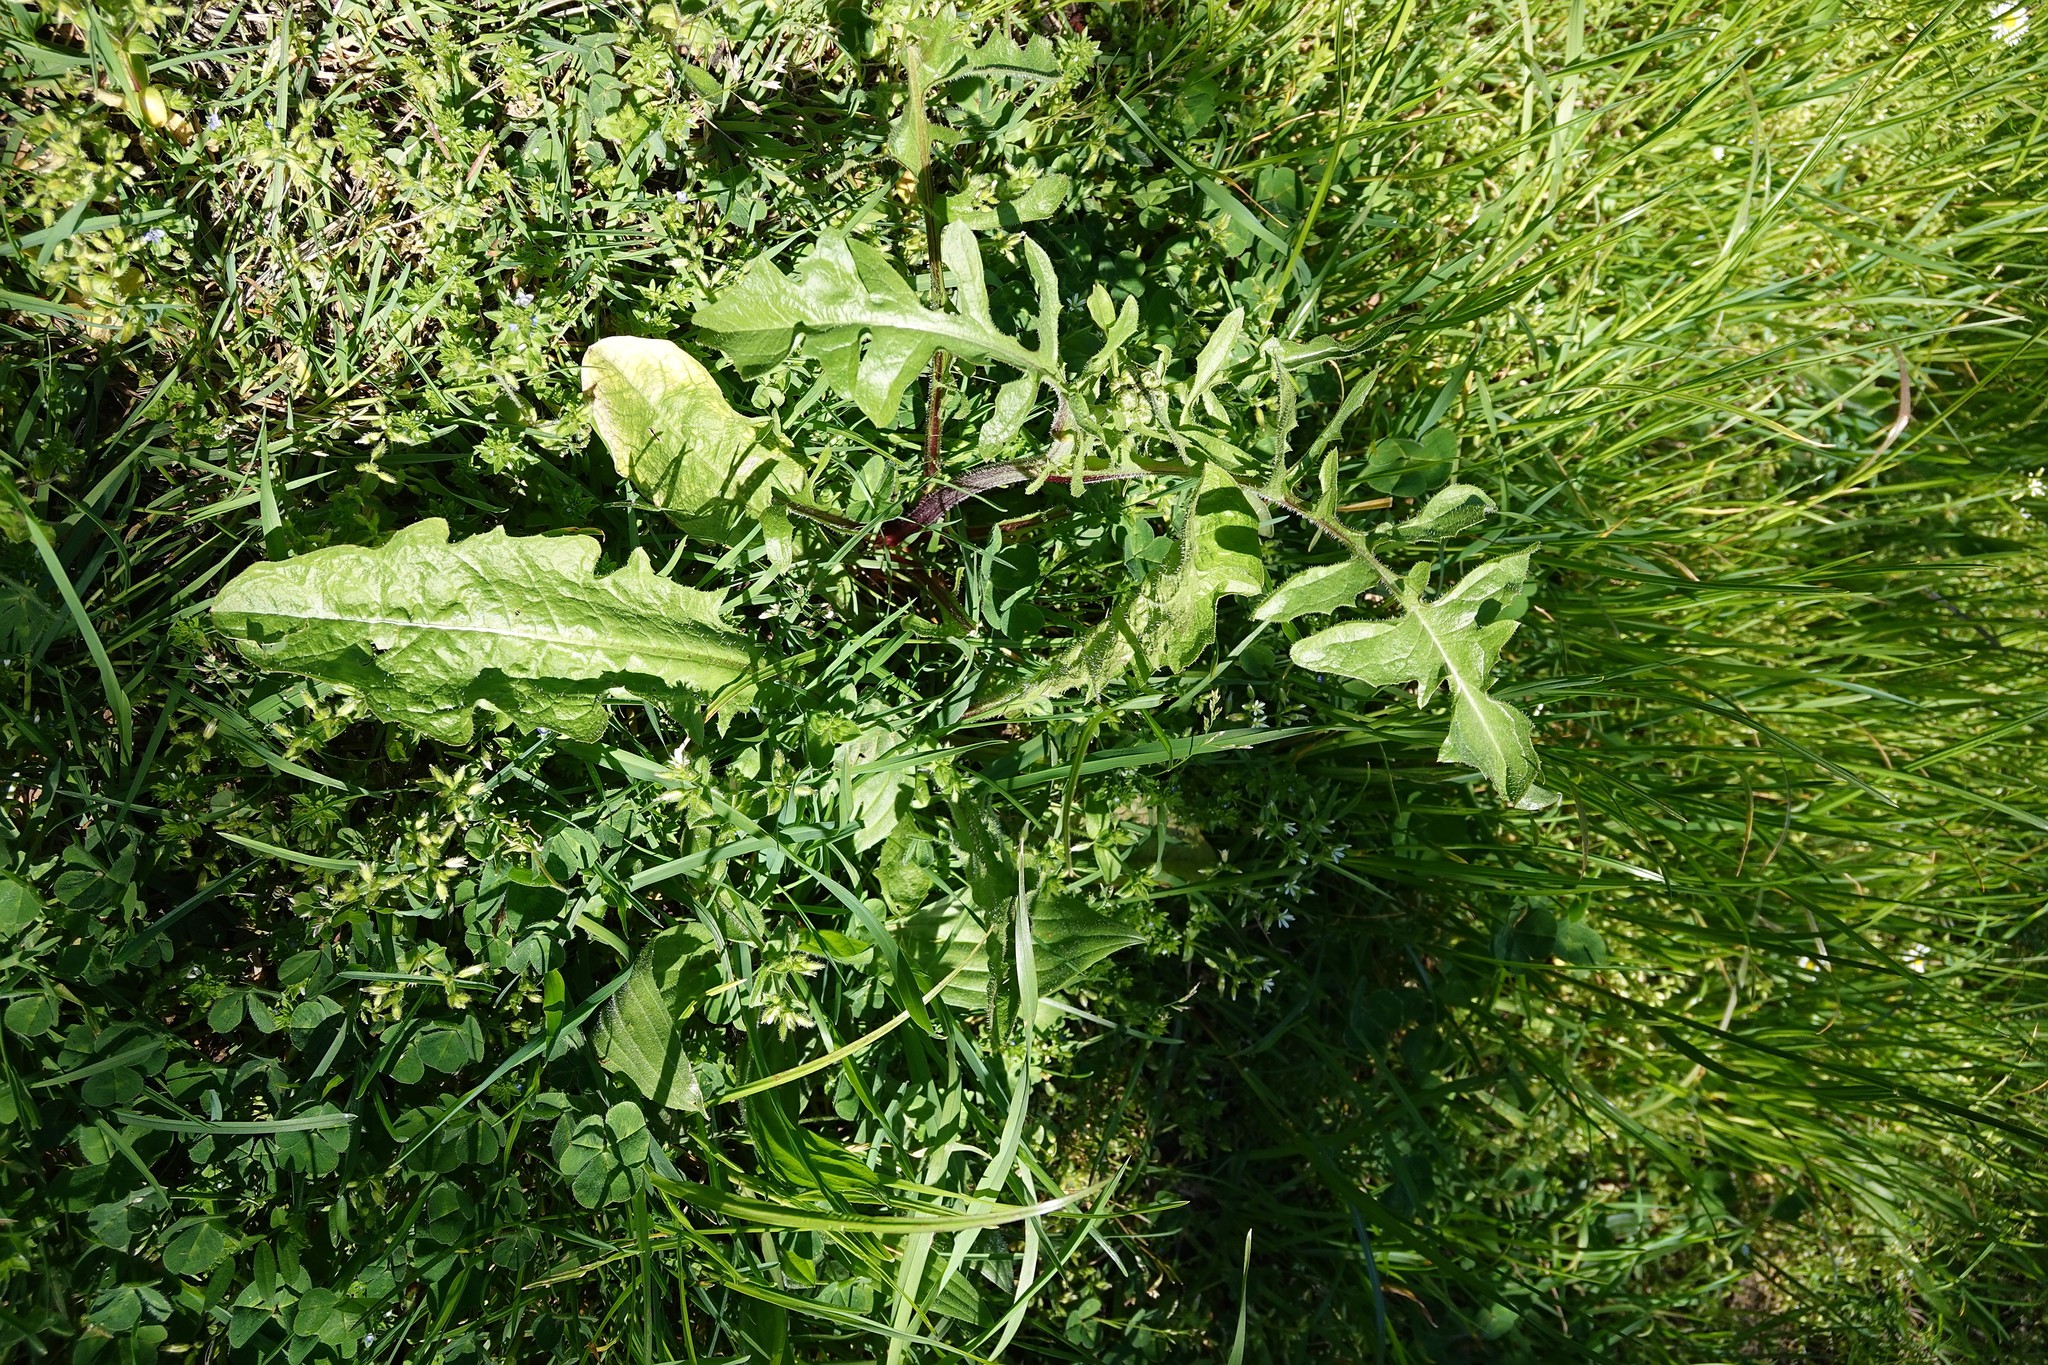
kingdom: Plantae
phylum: Tracheophyta
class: Magnoliopsida
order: Brassicales
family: Brassicaceae
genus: Sisymbrium
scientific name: Sisymbrium officinale
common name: Hedge mustard
